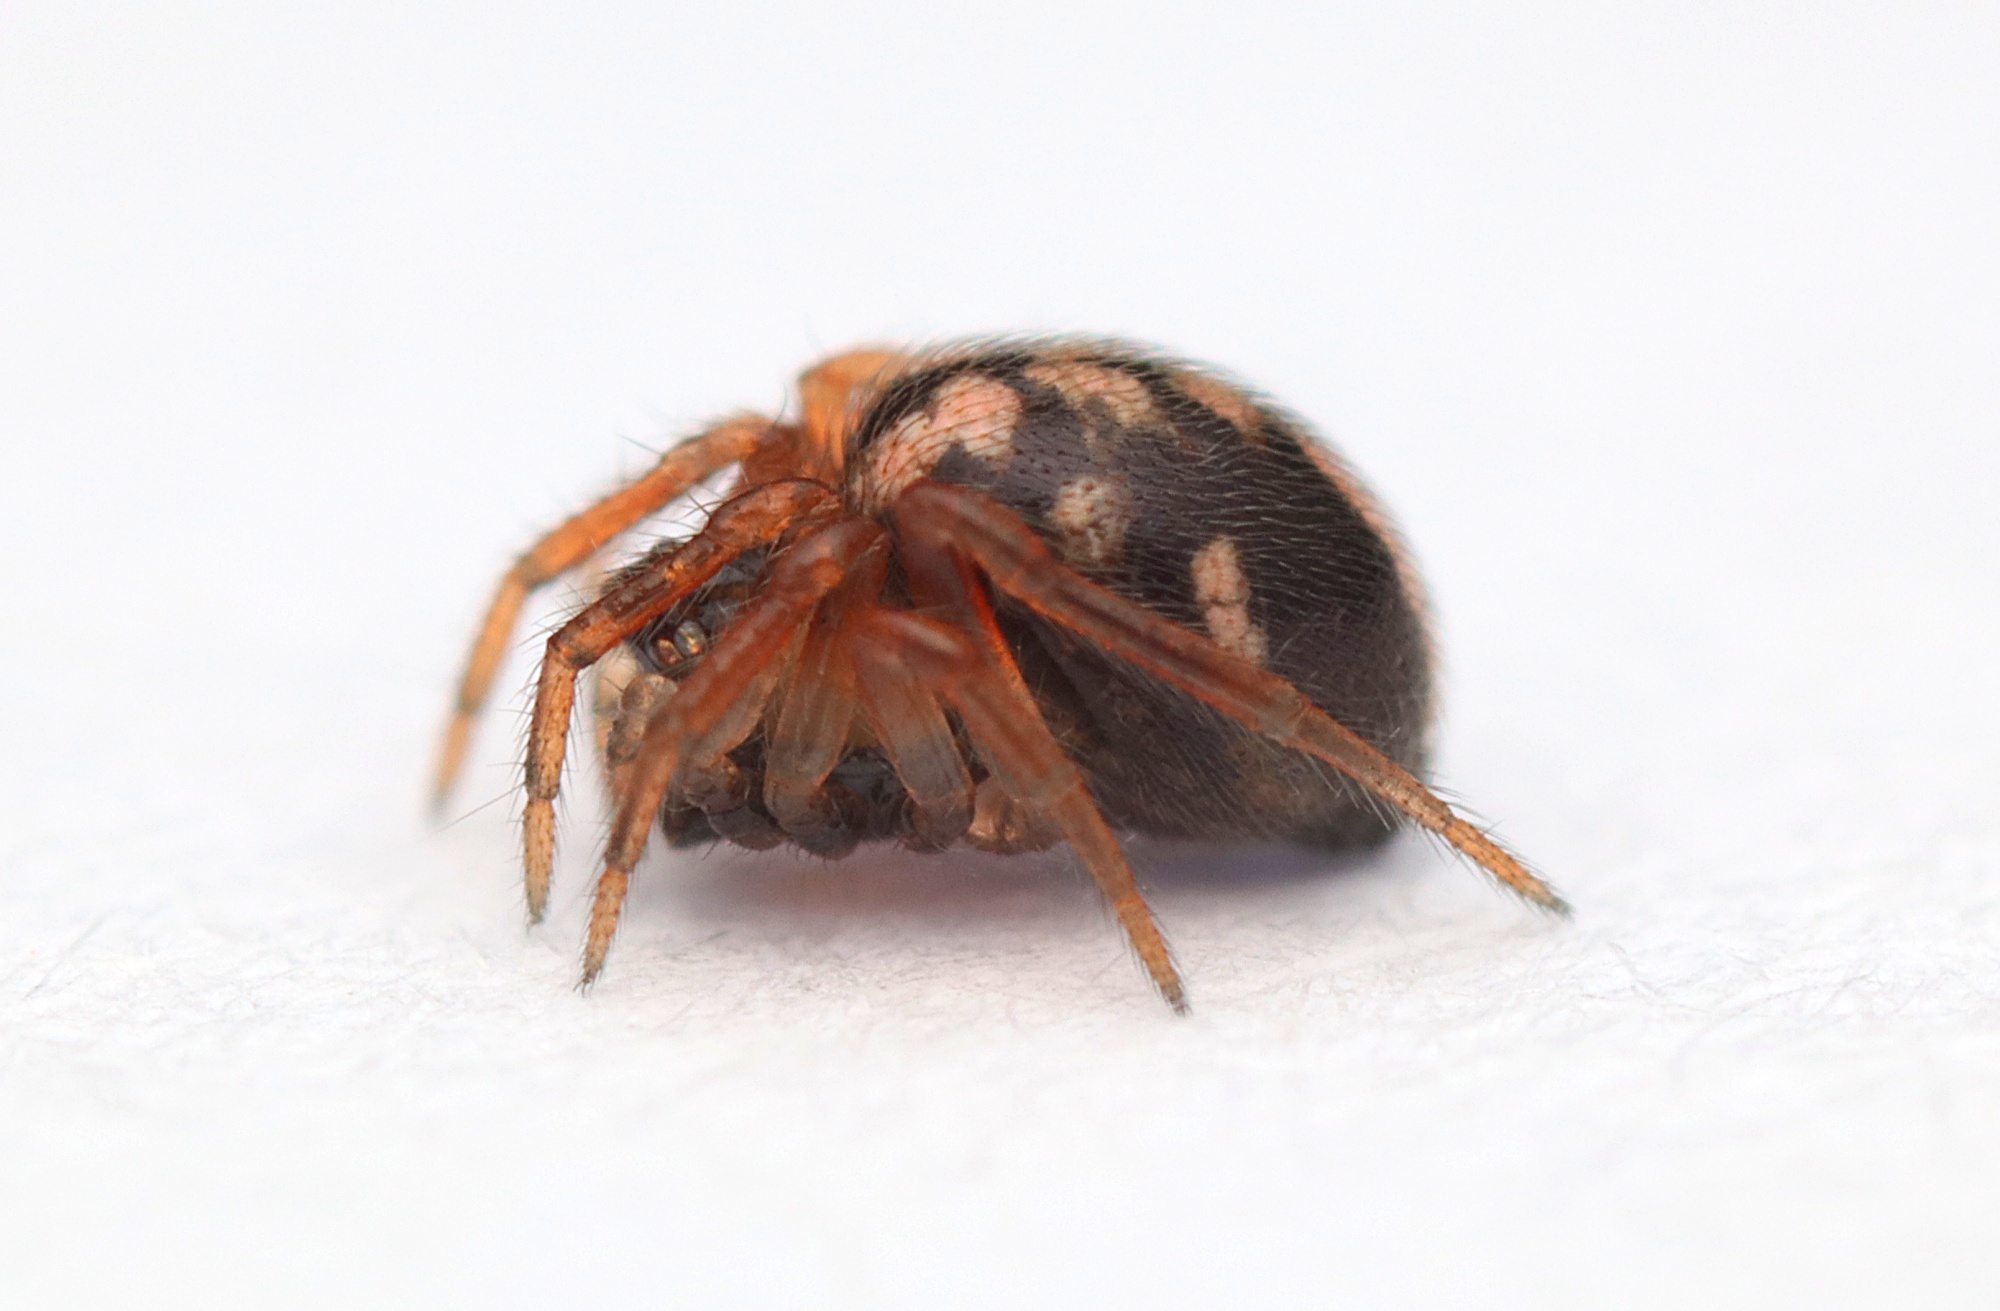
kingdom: Animalia
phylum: Arthropoda
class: Arachnida
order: Araneae
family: Theridiidae
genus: Phycosoma
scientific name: Phycosoma oecobioides
